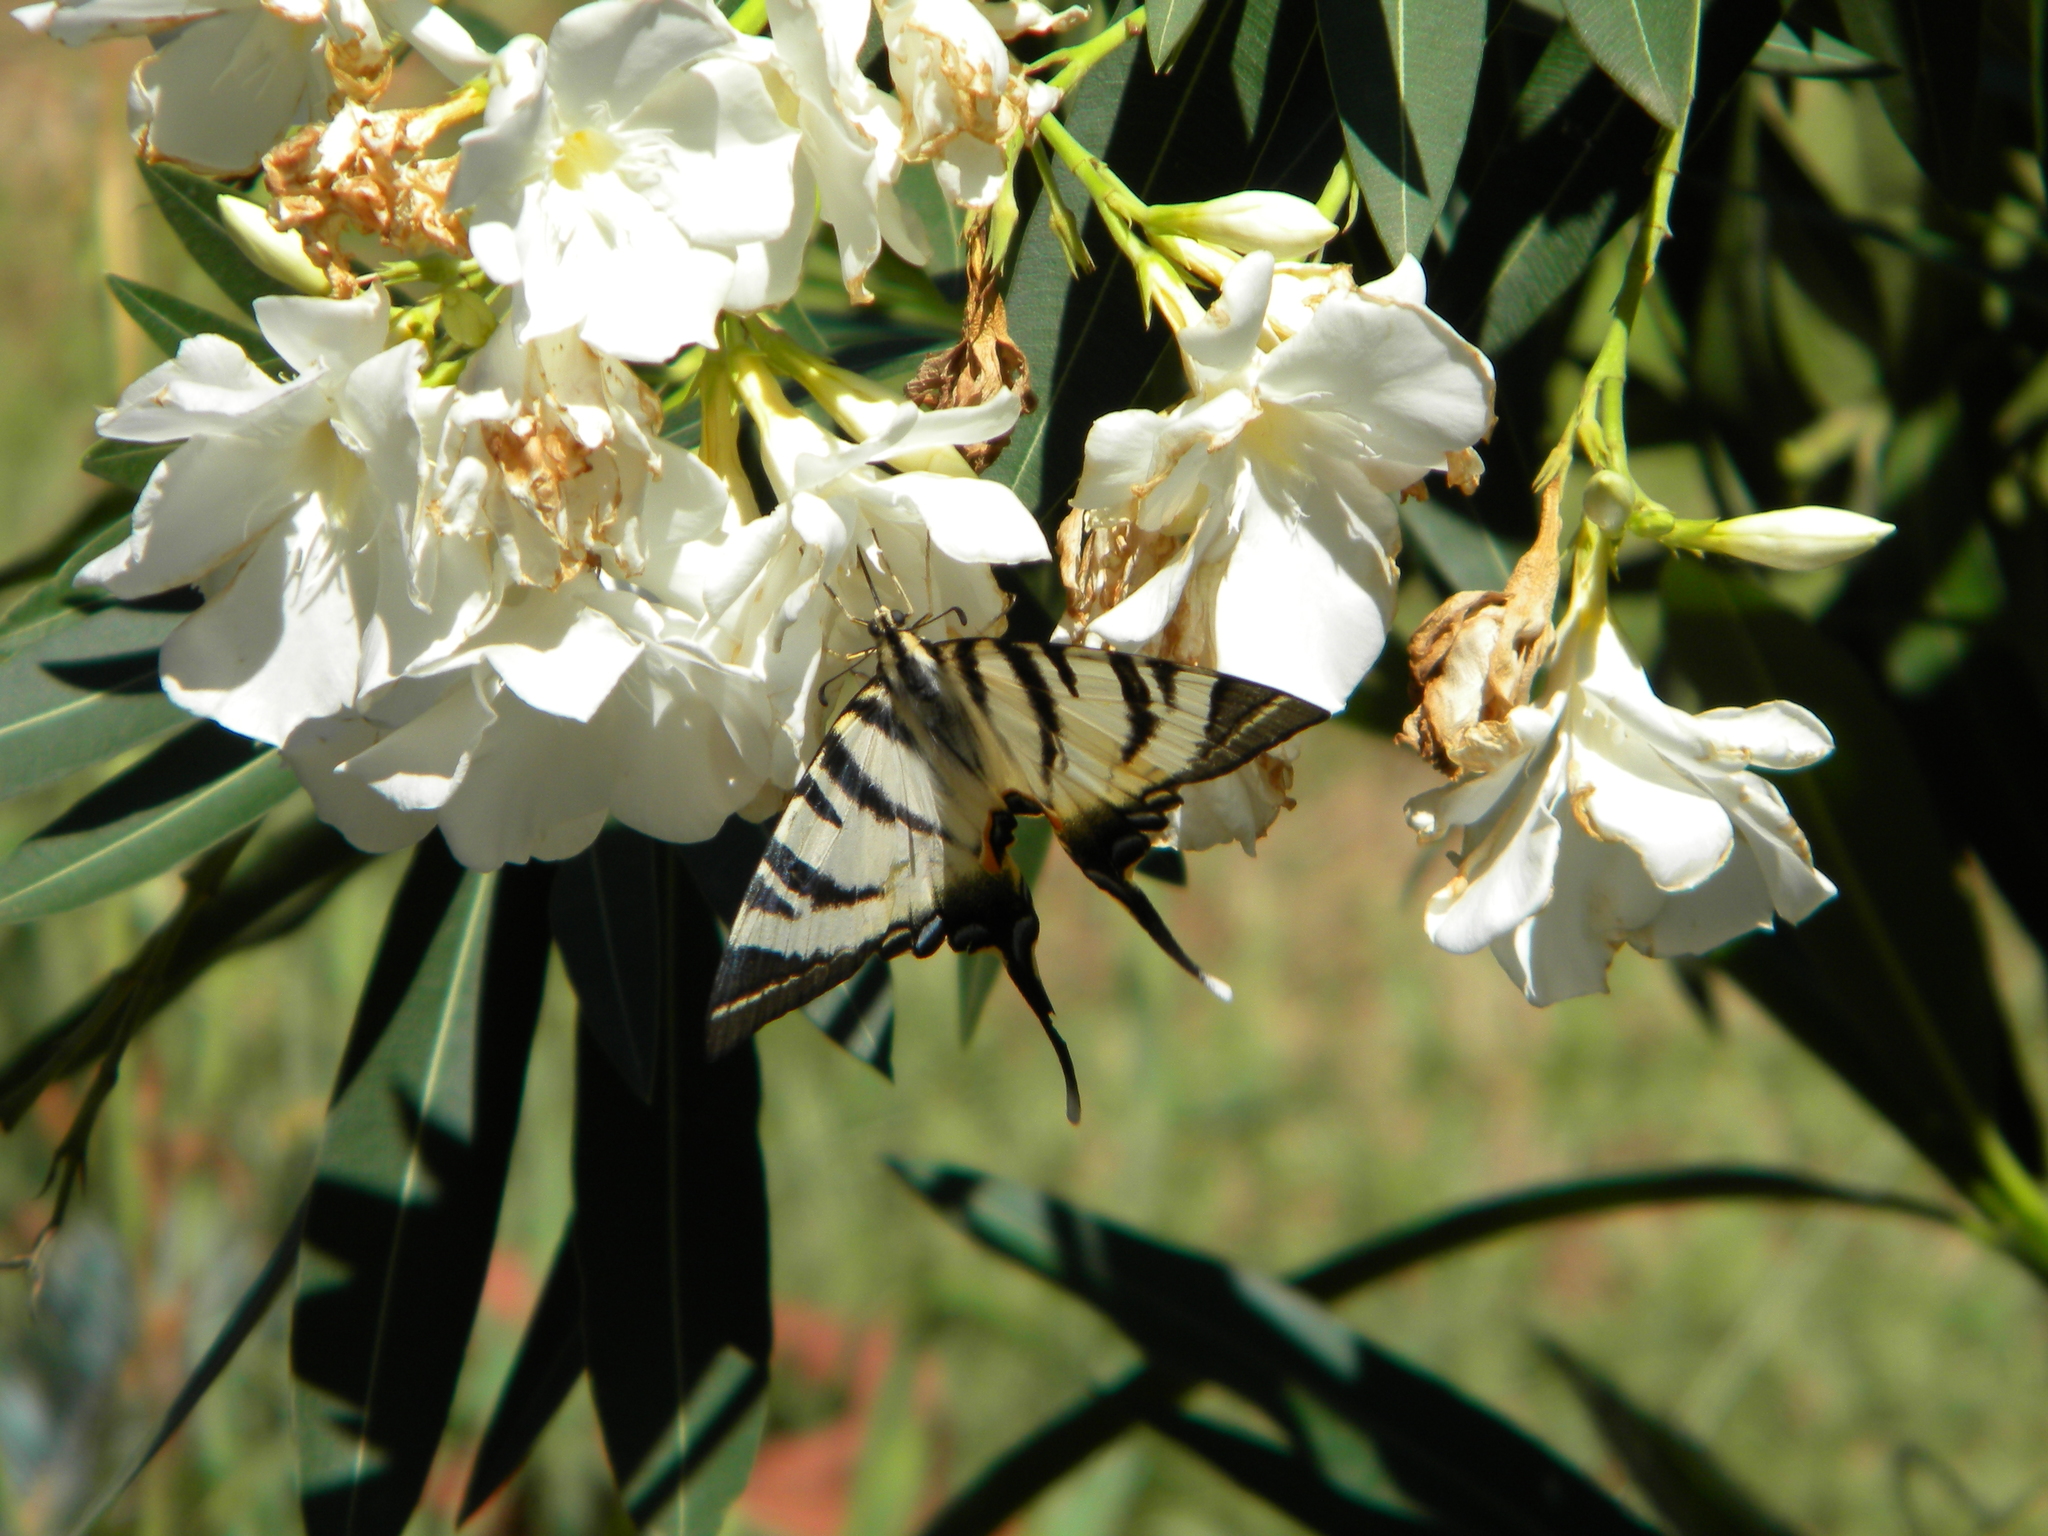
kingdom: Animalia
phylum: Arthropoda
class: Insecta
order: Lepidoptera
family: Papilionidae
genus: Iphiclides
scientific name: Iphiclides podalirius
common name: Scarce swallowtail
